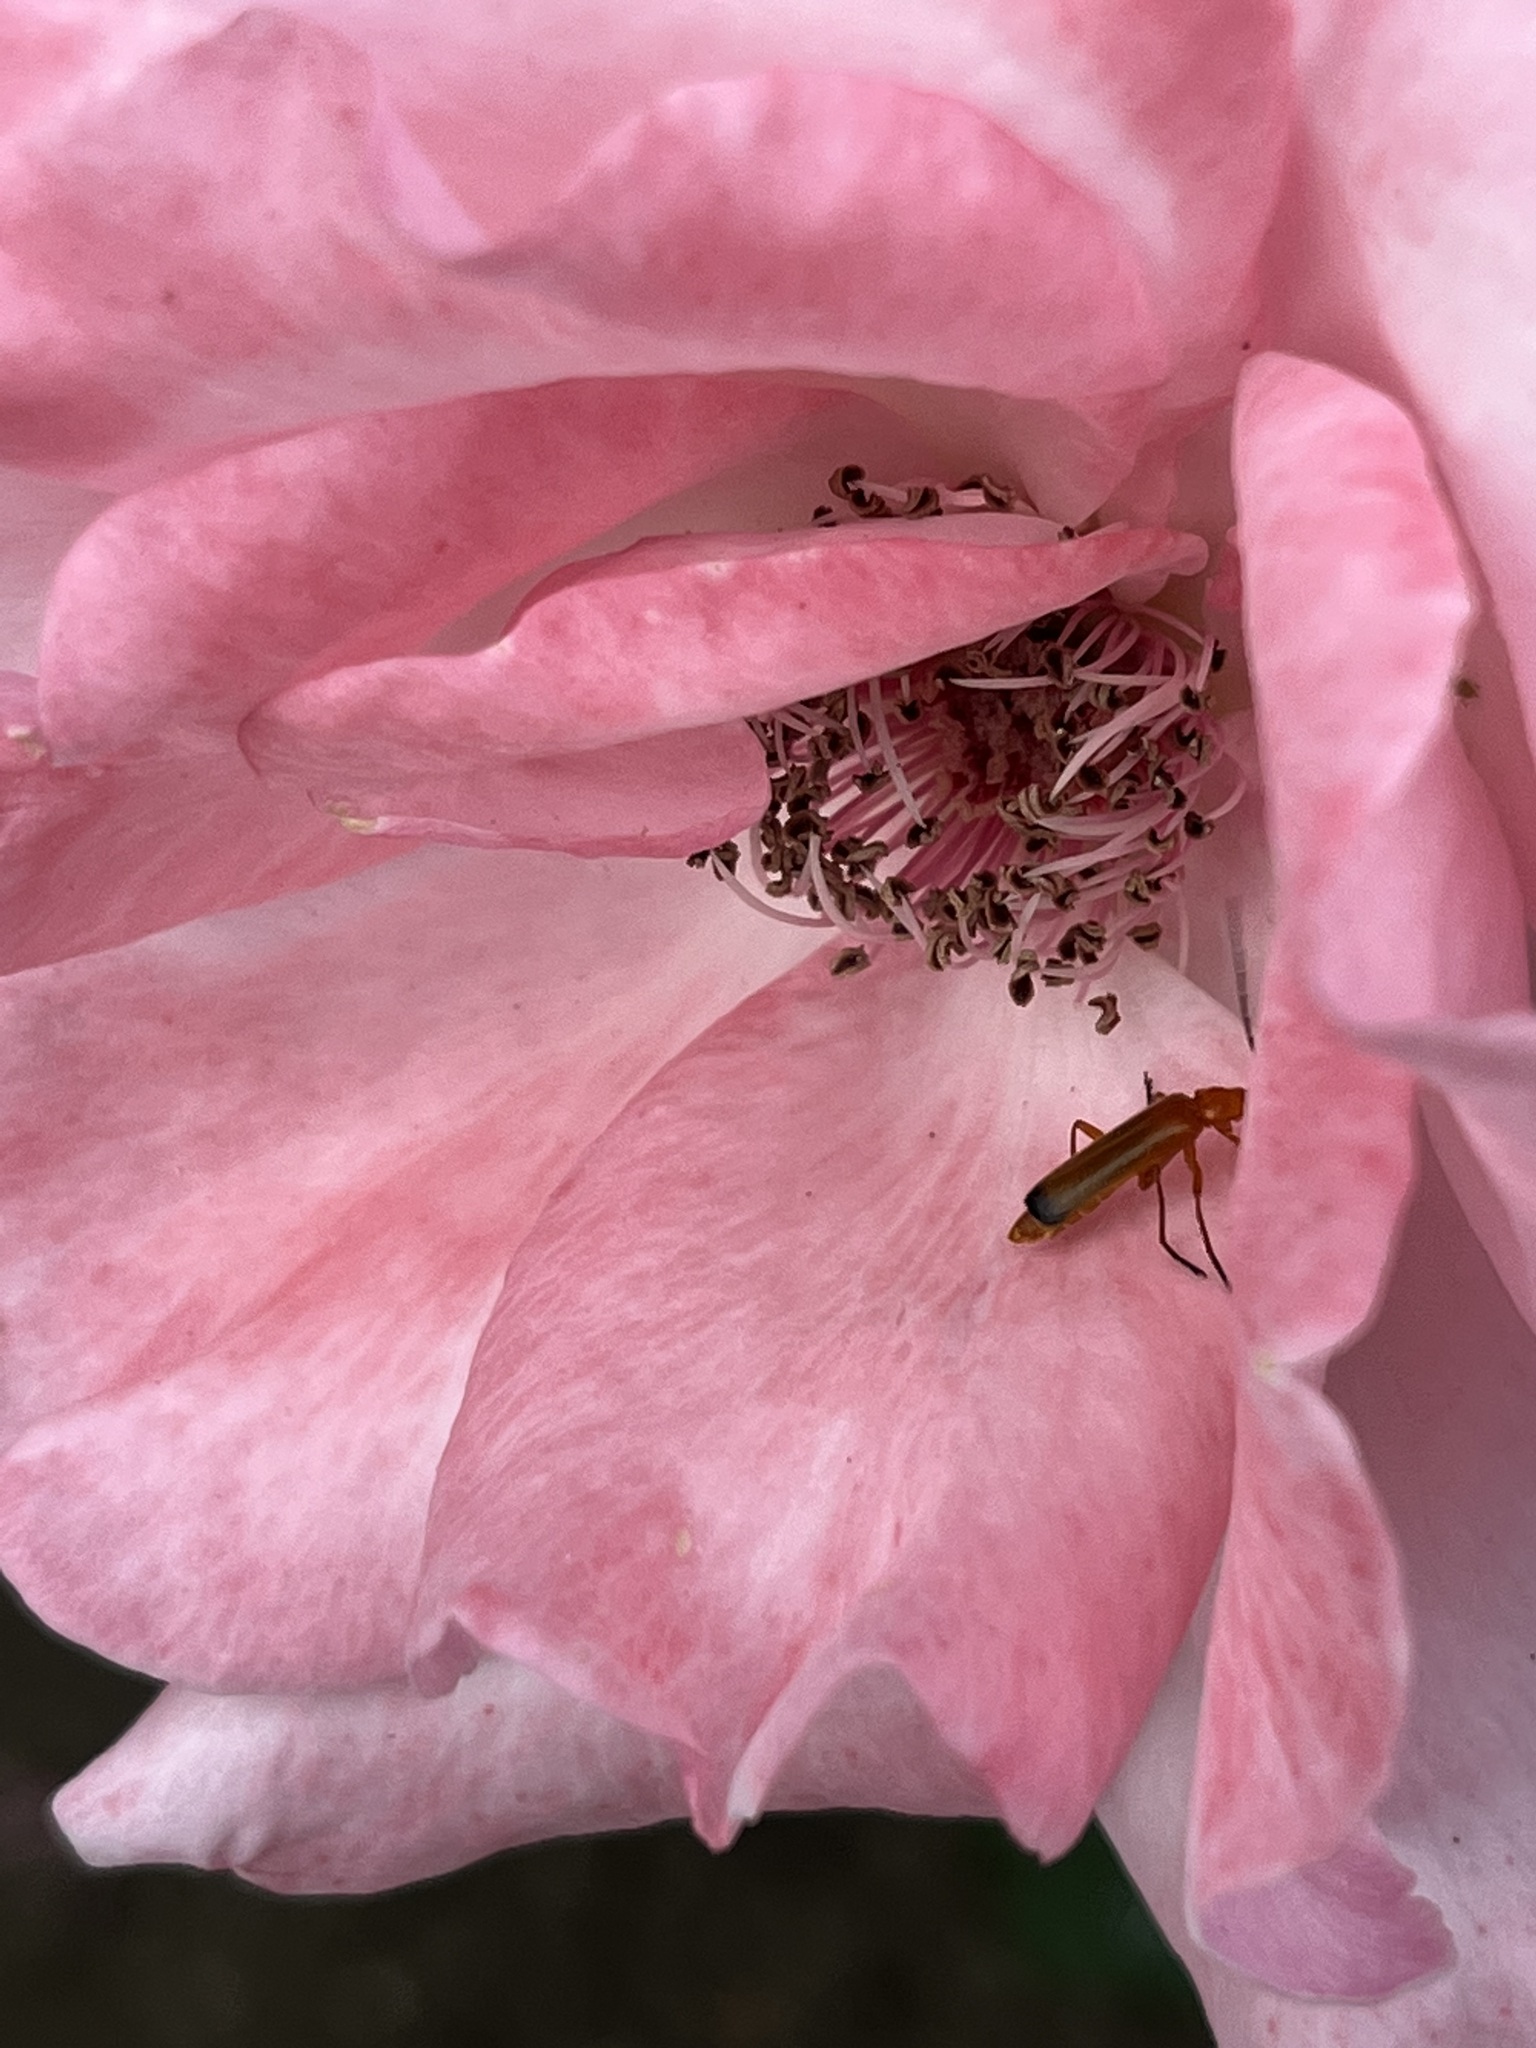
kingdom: Animalia
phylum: Arthropoda
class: Insecta
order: Coleoptera
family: Cantharidae
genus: Rhagonycha
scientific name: Rhagonycha fulva
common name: Common red soldier beetle
